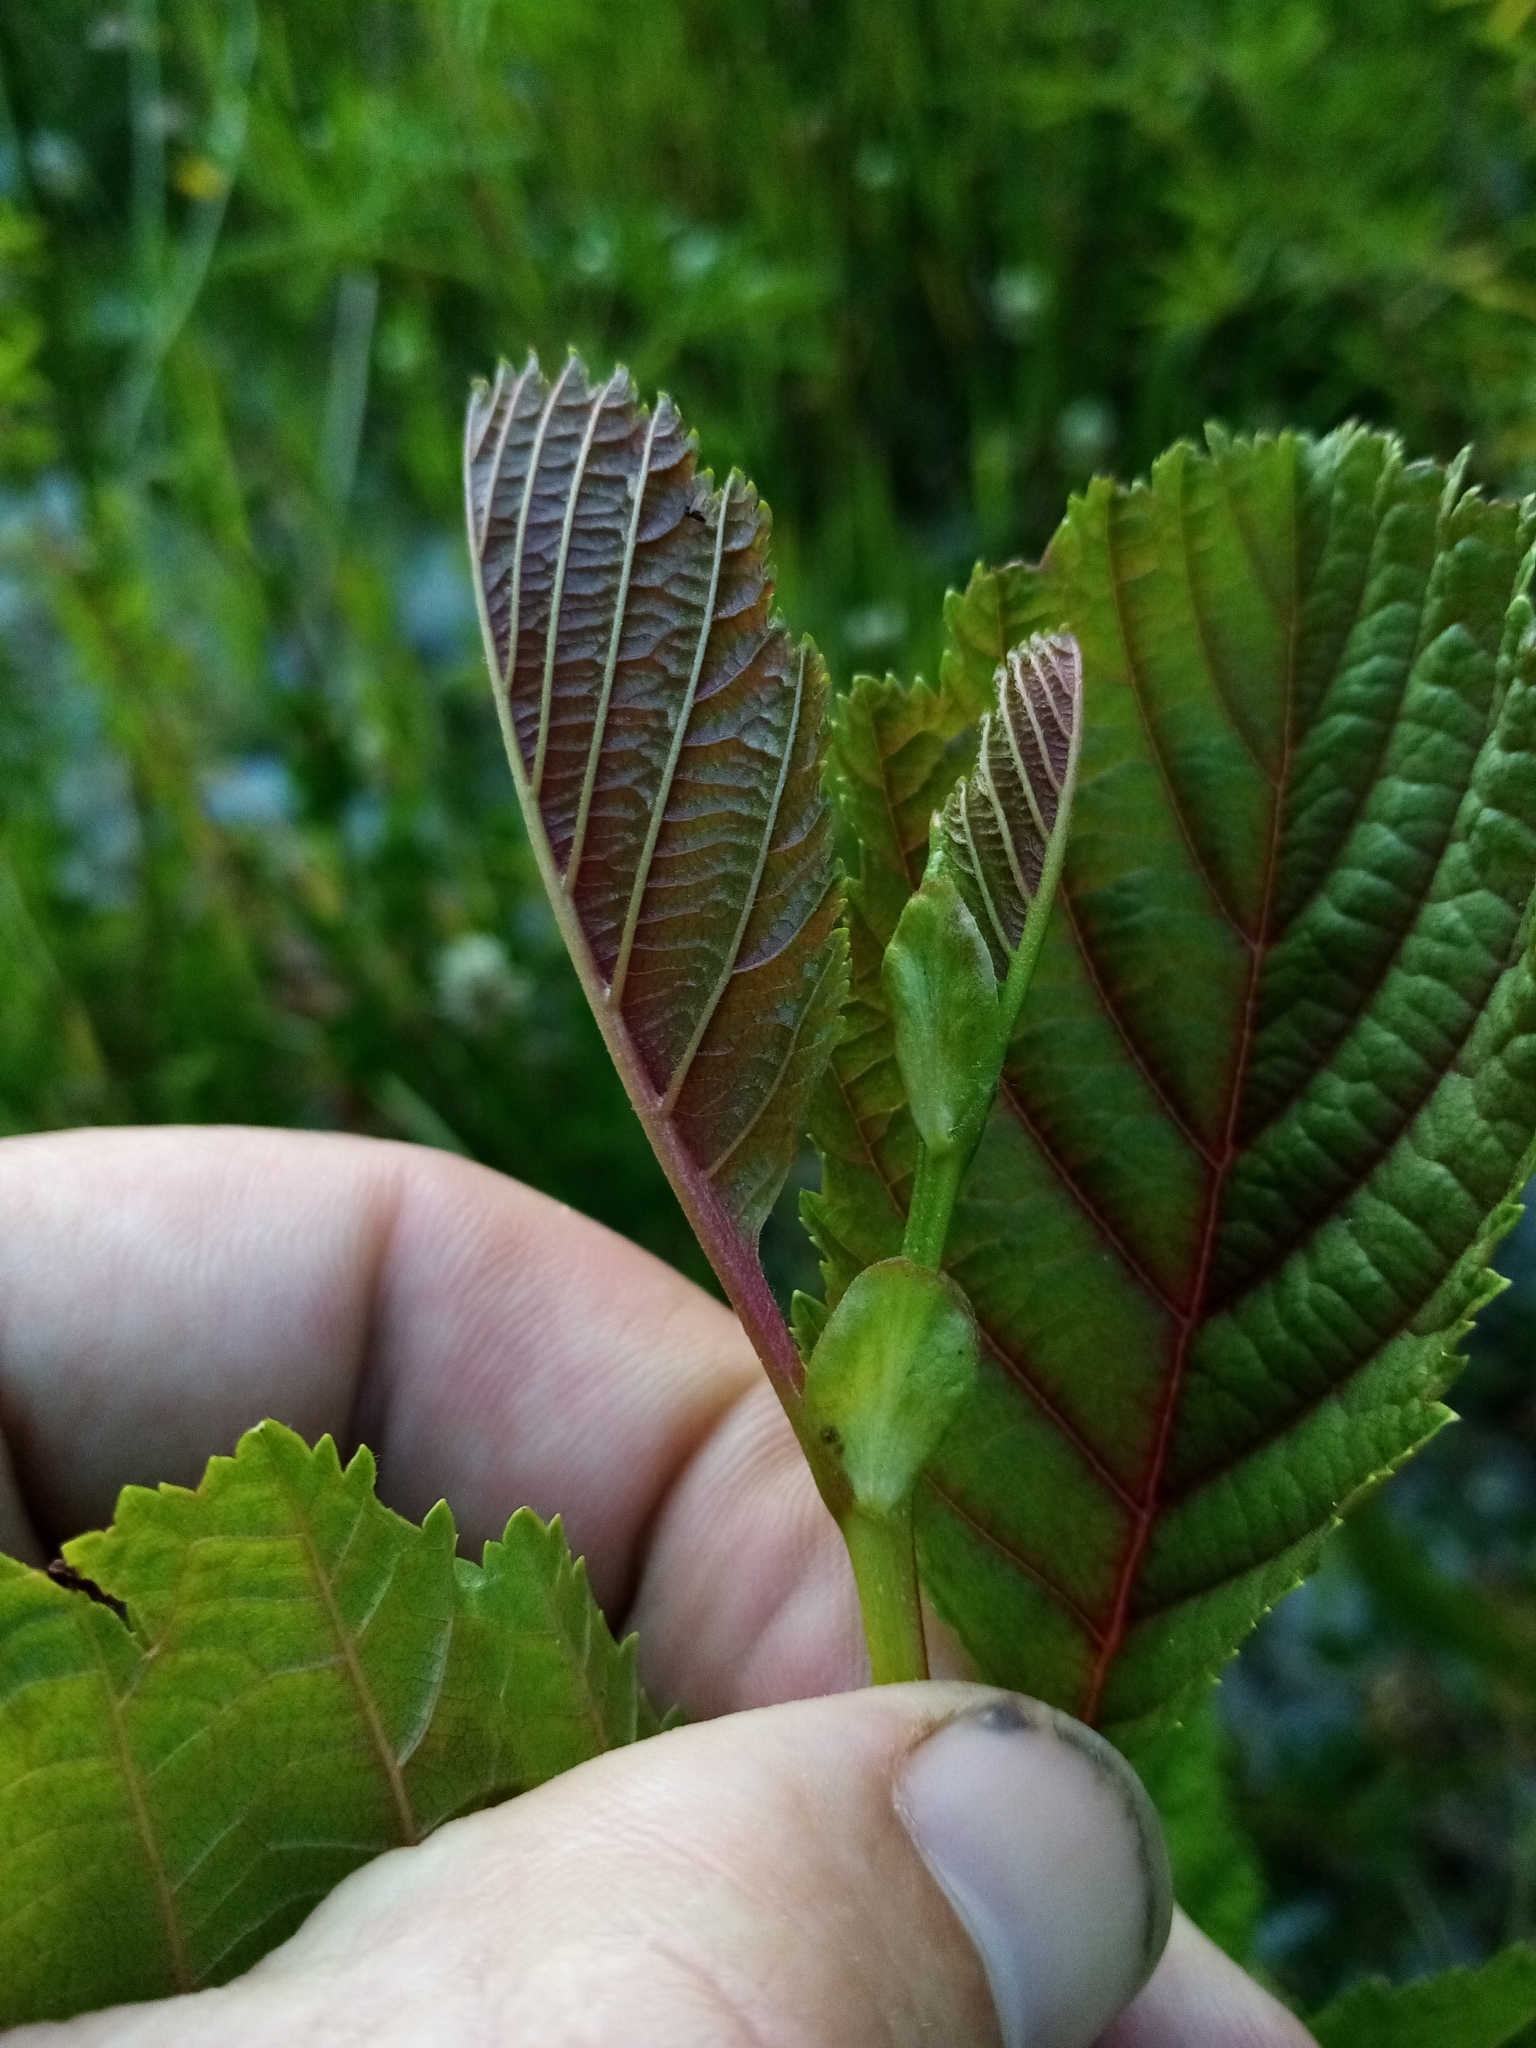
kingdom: Plantae
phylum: Tracheophyta
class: Magnoliopsida
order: Fagales
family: Betulaceae
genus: Alnus
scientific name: Alnus glutinosa
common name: Black alder
